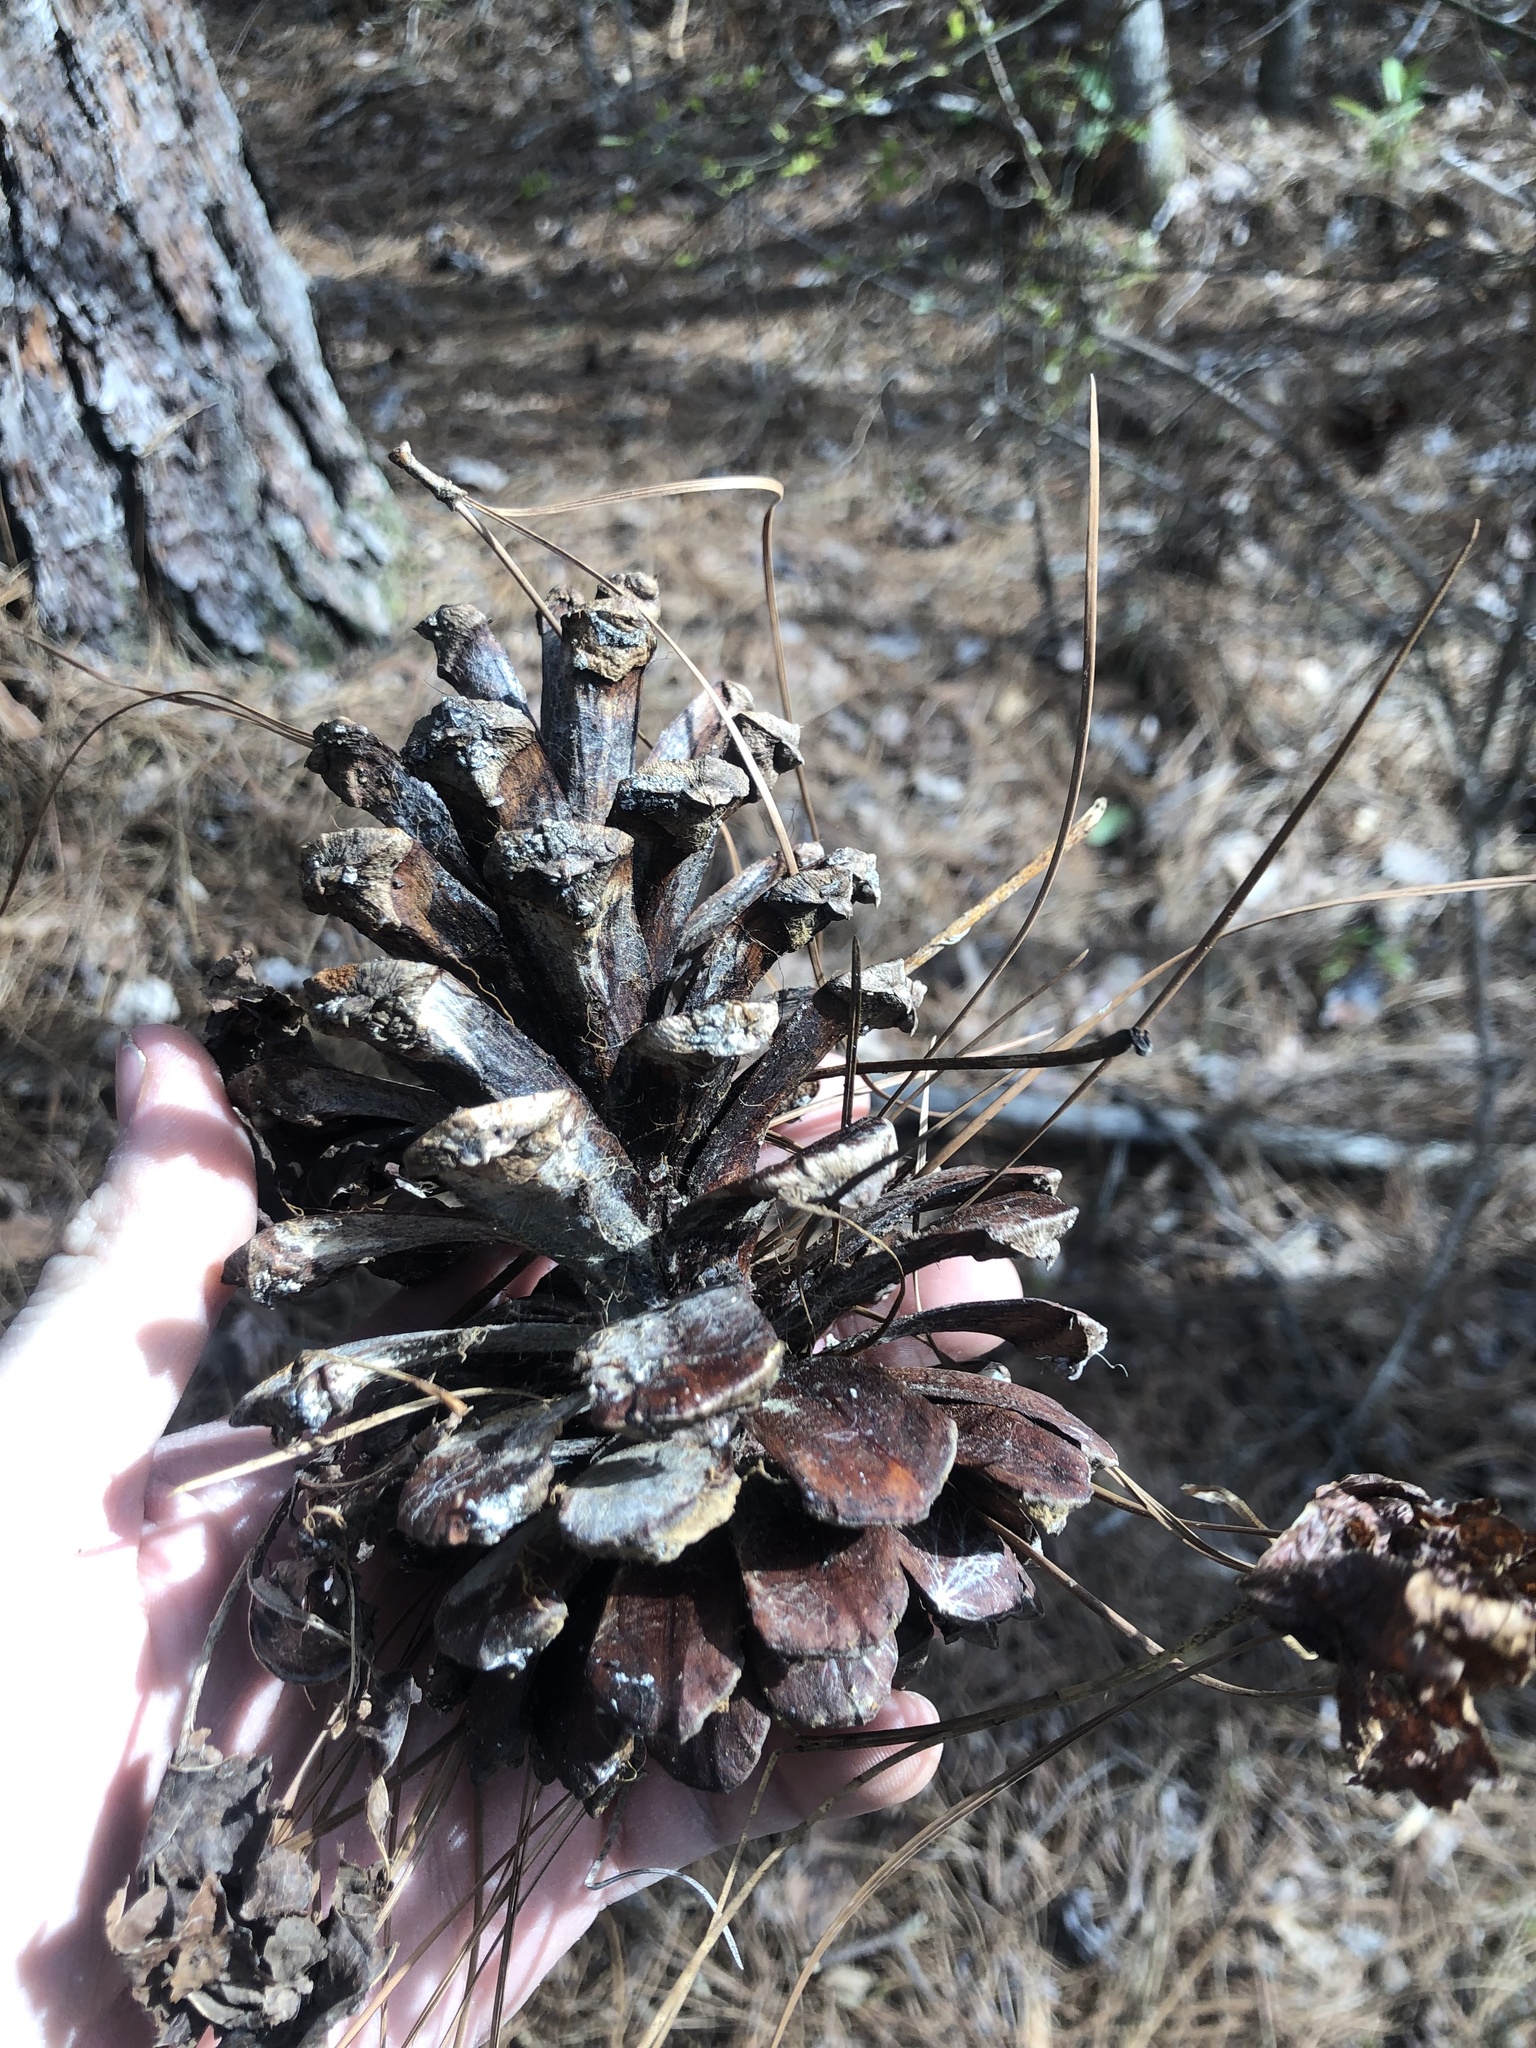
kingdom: Plantae
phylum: Tracheophyta
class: Pinopsida
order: Pinales
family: Pinaceae
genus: Pinus
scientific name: Pinus palustris
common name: Longleaf pine
